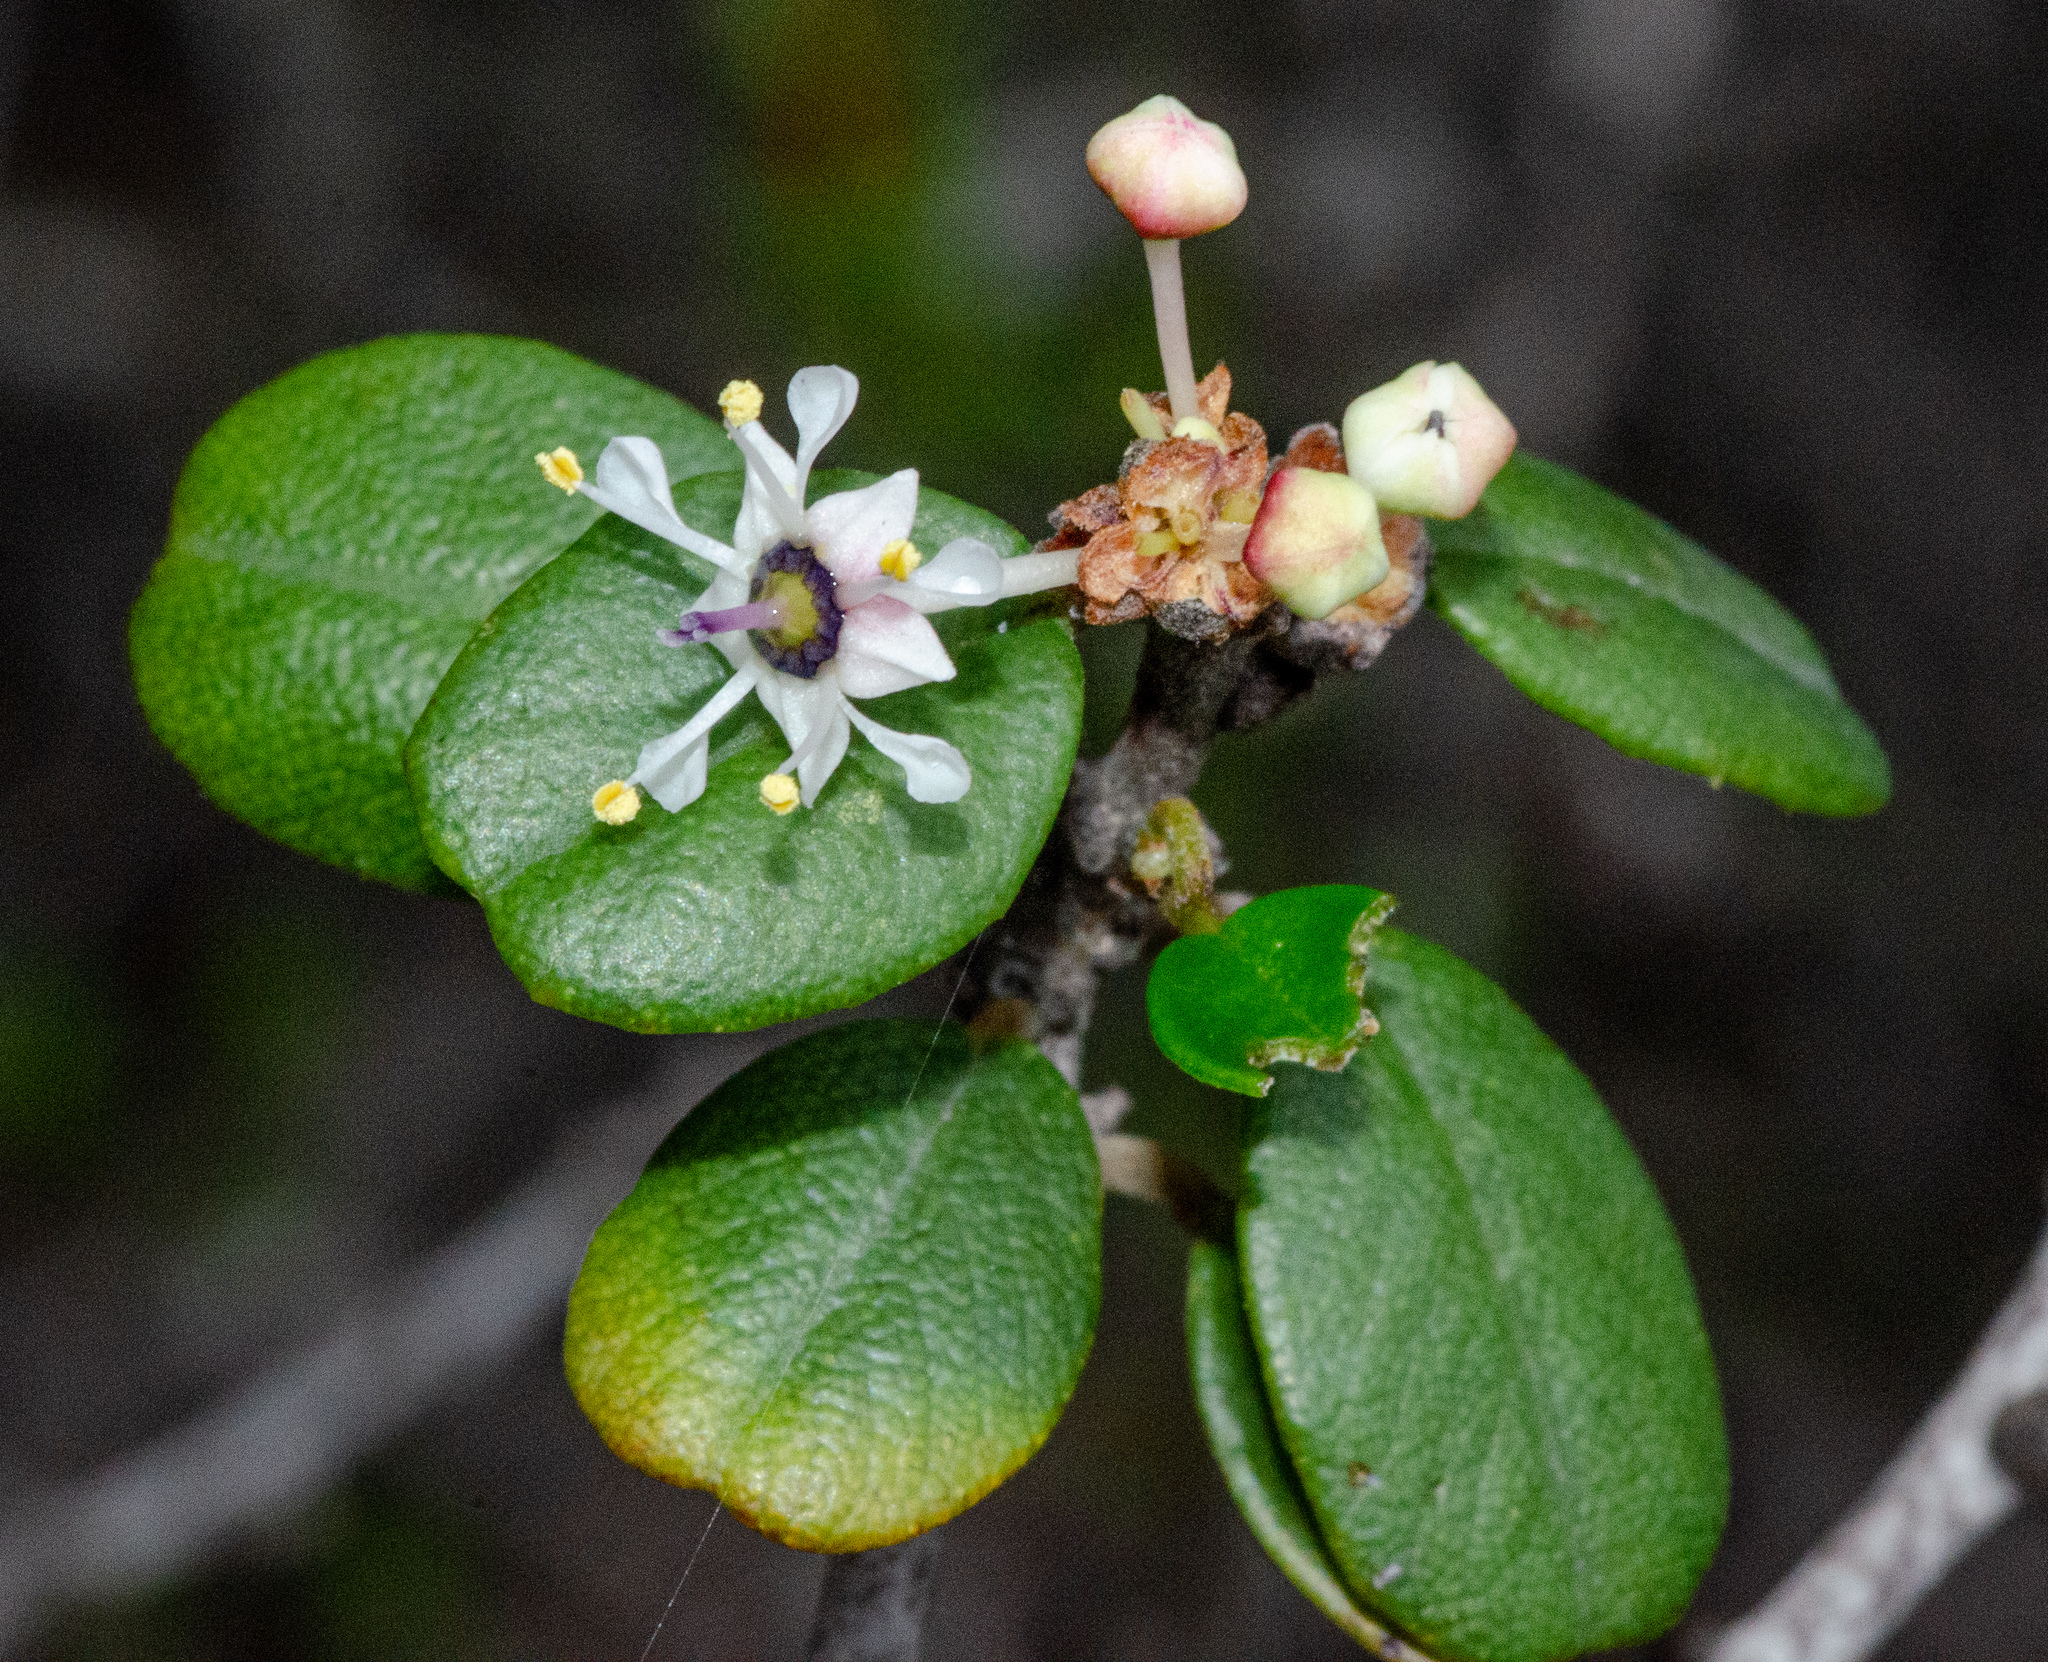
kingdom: Plantae
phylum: Tracheophyta
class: Magnoliopsida
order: Rosales
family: Rhamnaceae
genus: Ceanothus
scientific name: Ceanothus verrucosus
